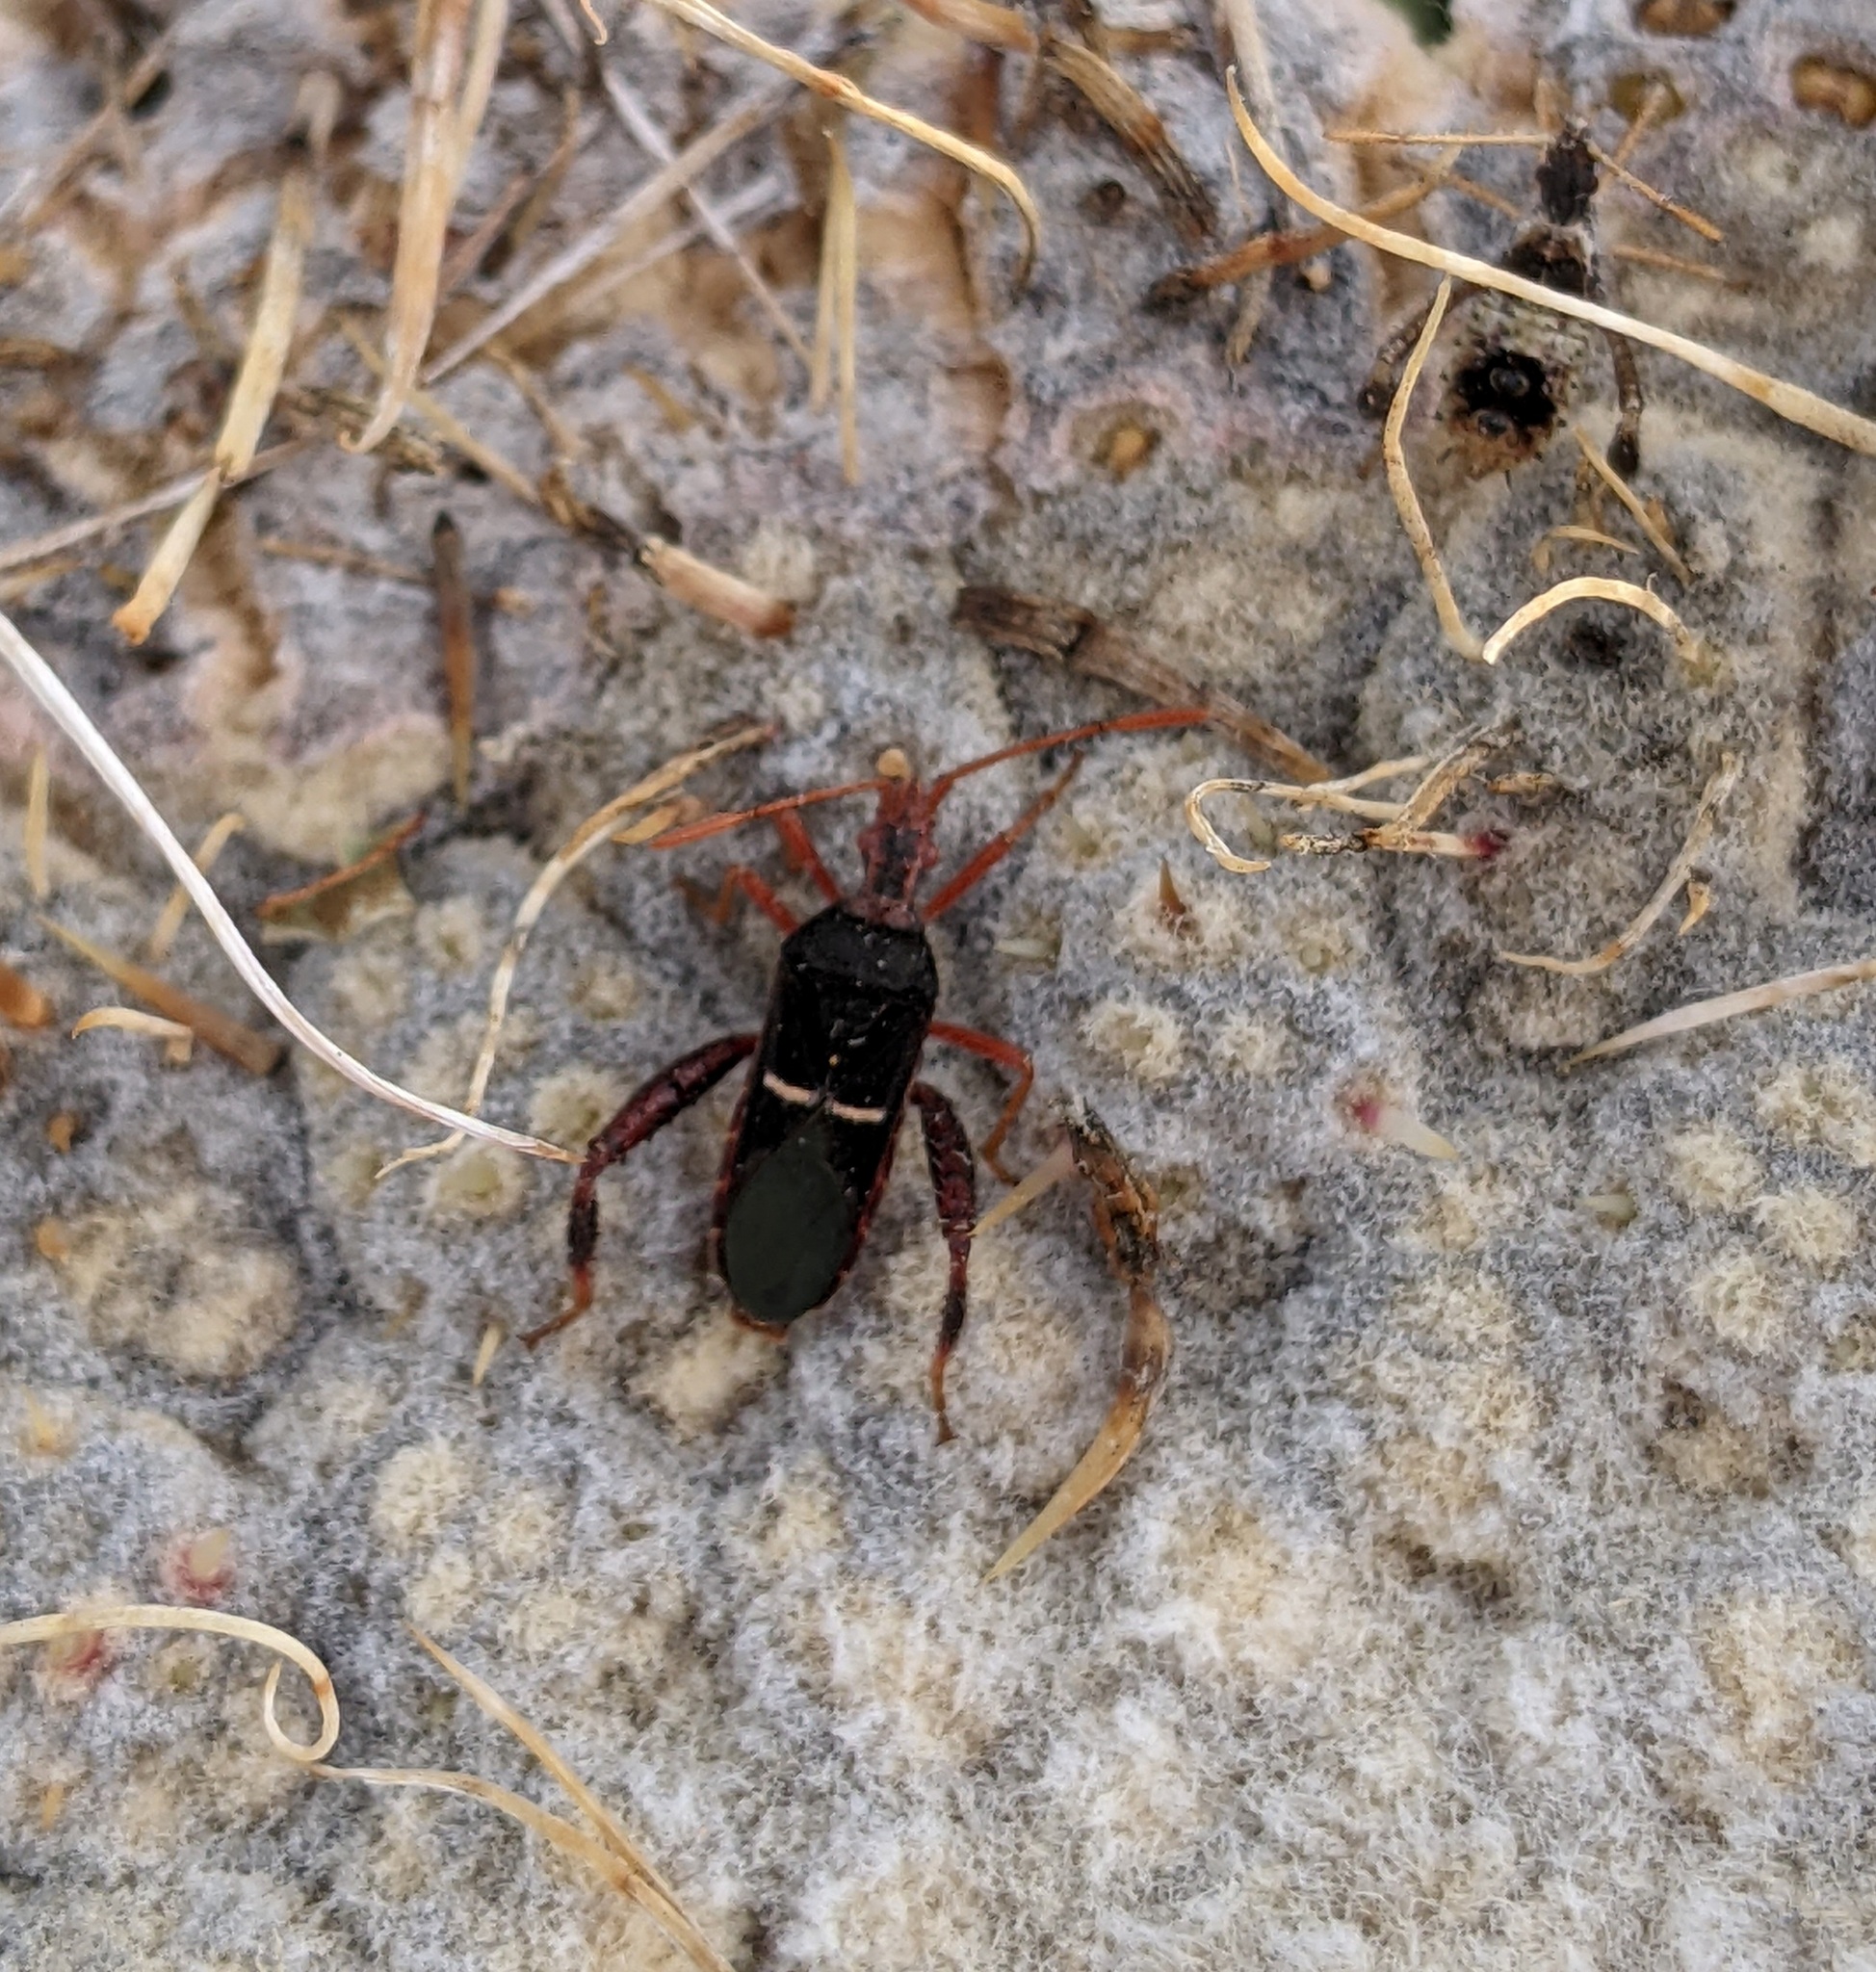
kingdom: Animalia
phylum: Arthropoda
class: Insecta
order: Hemiptera
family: Coreidae
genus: Narnia
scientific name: Narnia wilsoni
